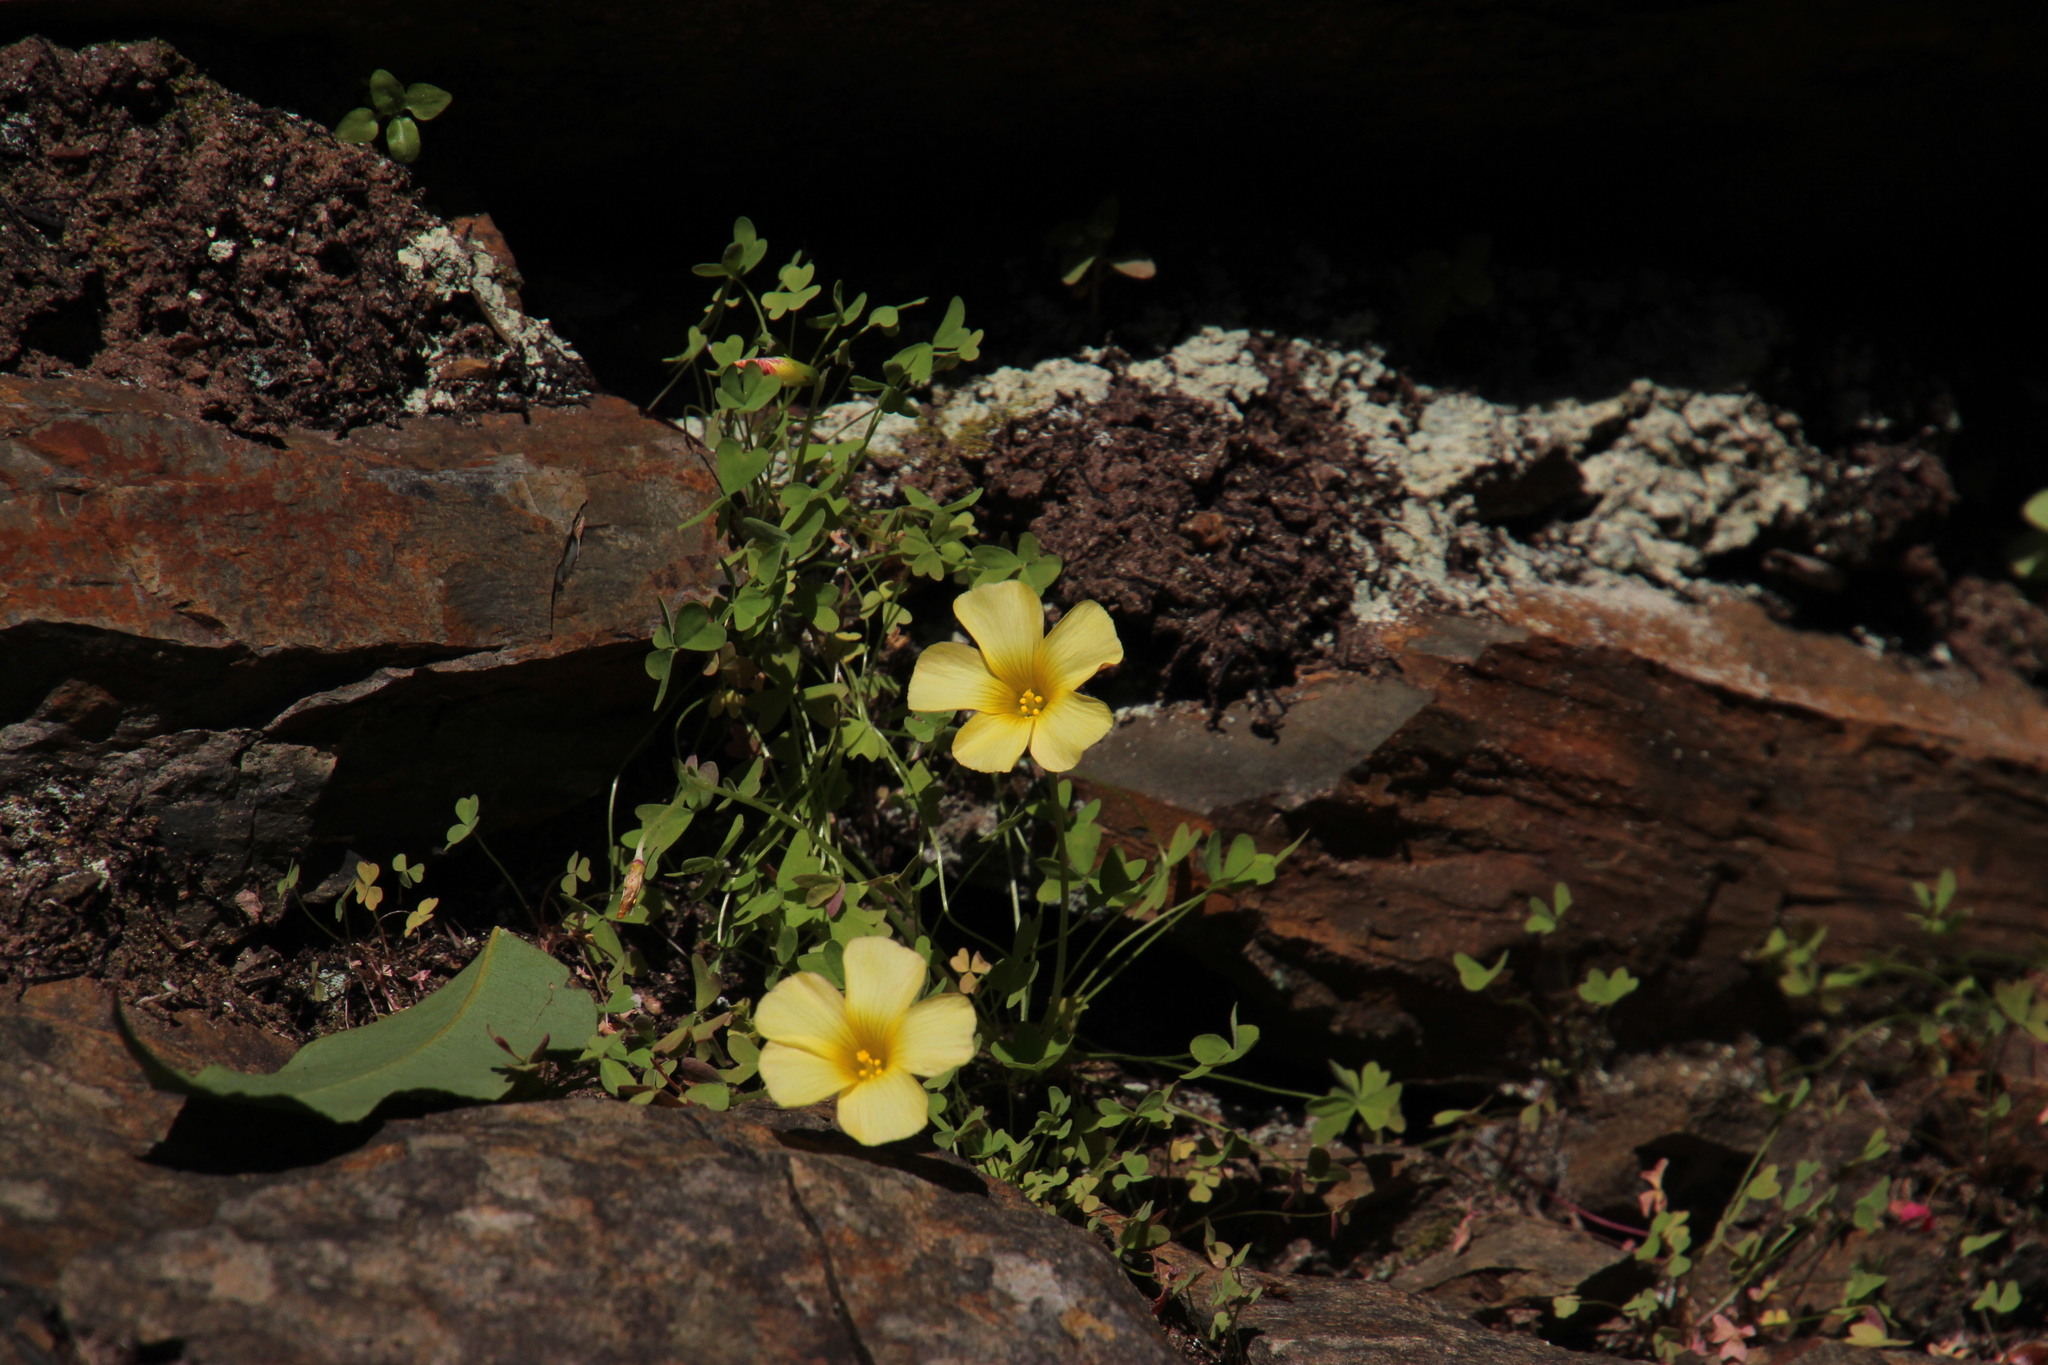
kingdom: Plantae
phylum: Tracheophyta
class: Magnoliopsida
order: Oxalidales
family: Oxalidaceae
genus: Oxalis
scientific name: Oxalis obtusa
